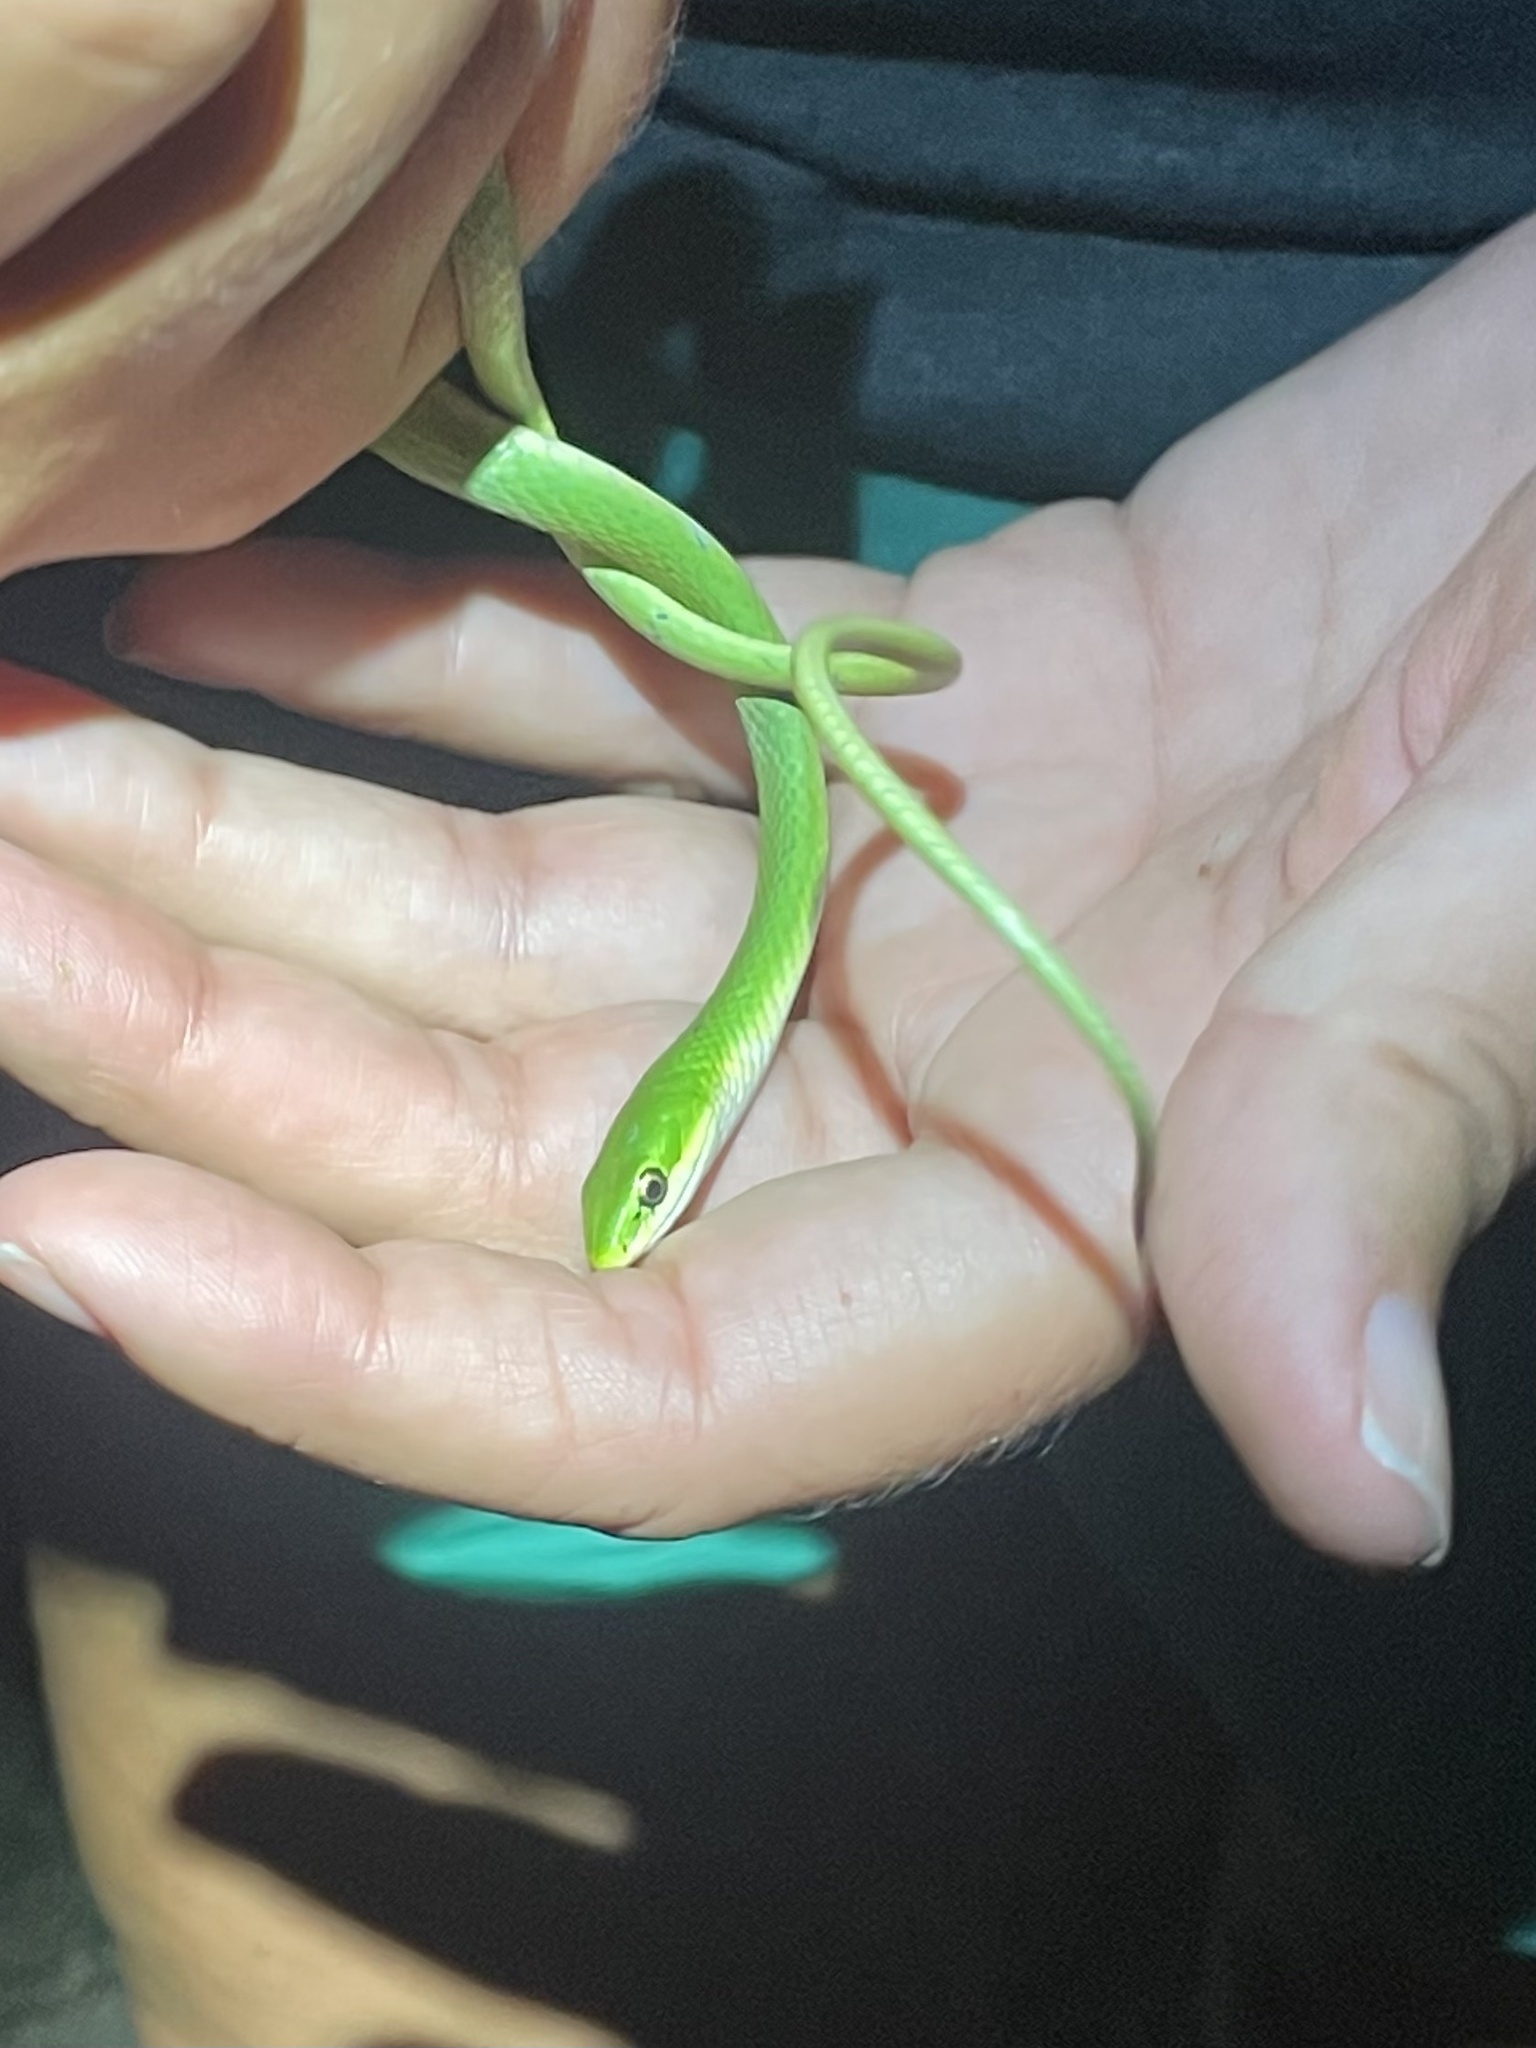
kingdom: Animalia
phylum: Chordata
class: Squamata
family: Colubridae
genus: Opheodrys
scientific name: Opheodrys aestivus
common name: Rough greensnake
